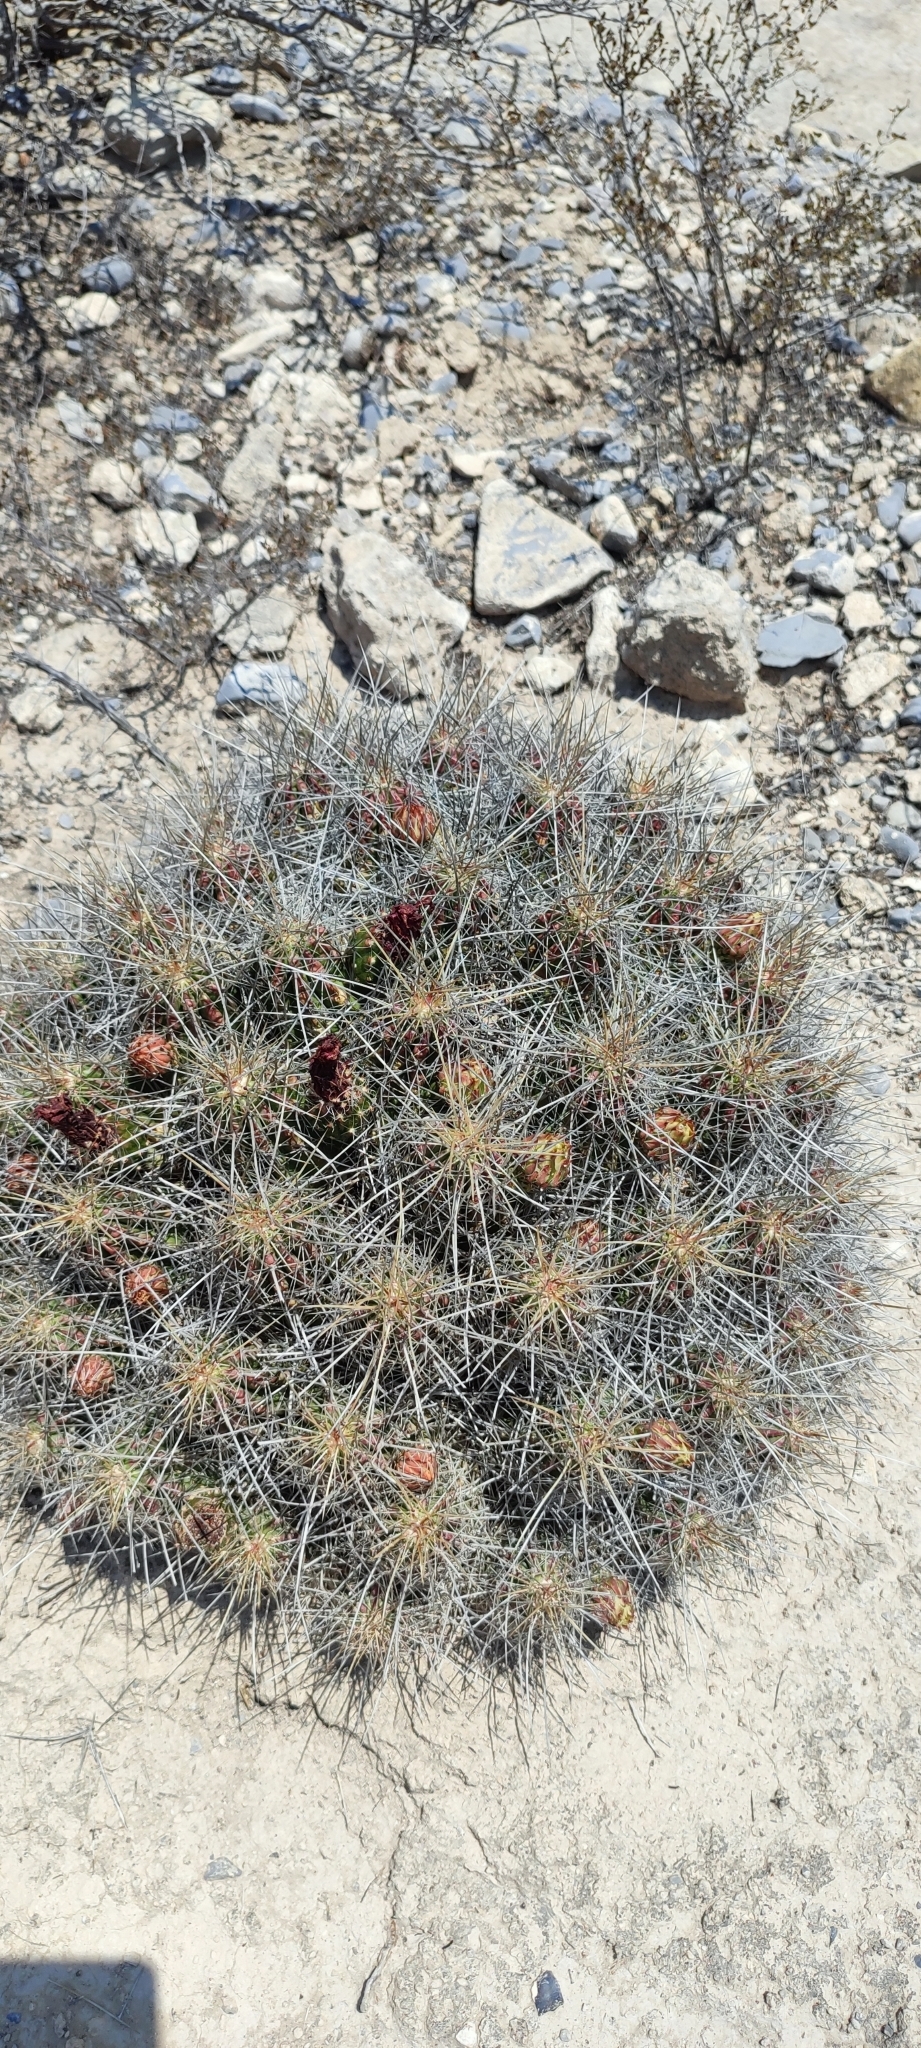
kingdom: Plantae
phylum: Tracheophyta
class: Magnoliopsida
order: Caryophyllales
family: Cactaceae
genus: Echinocereus
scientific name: Echinocereus stramineus
